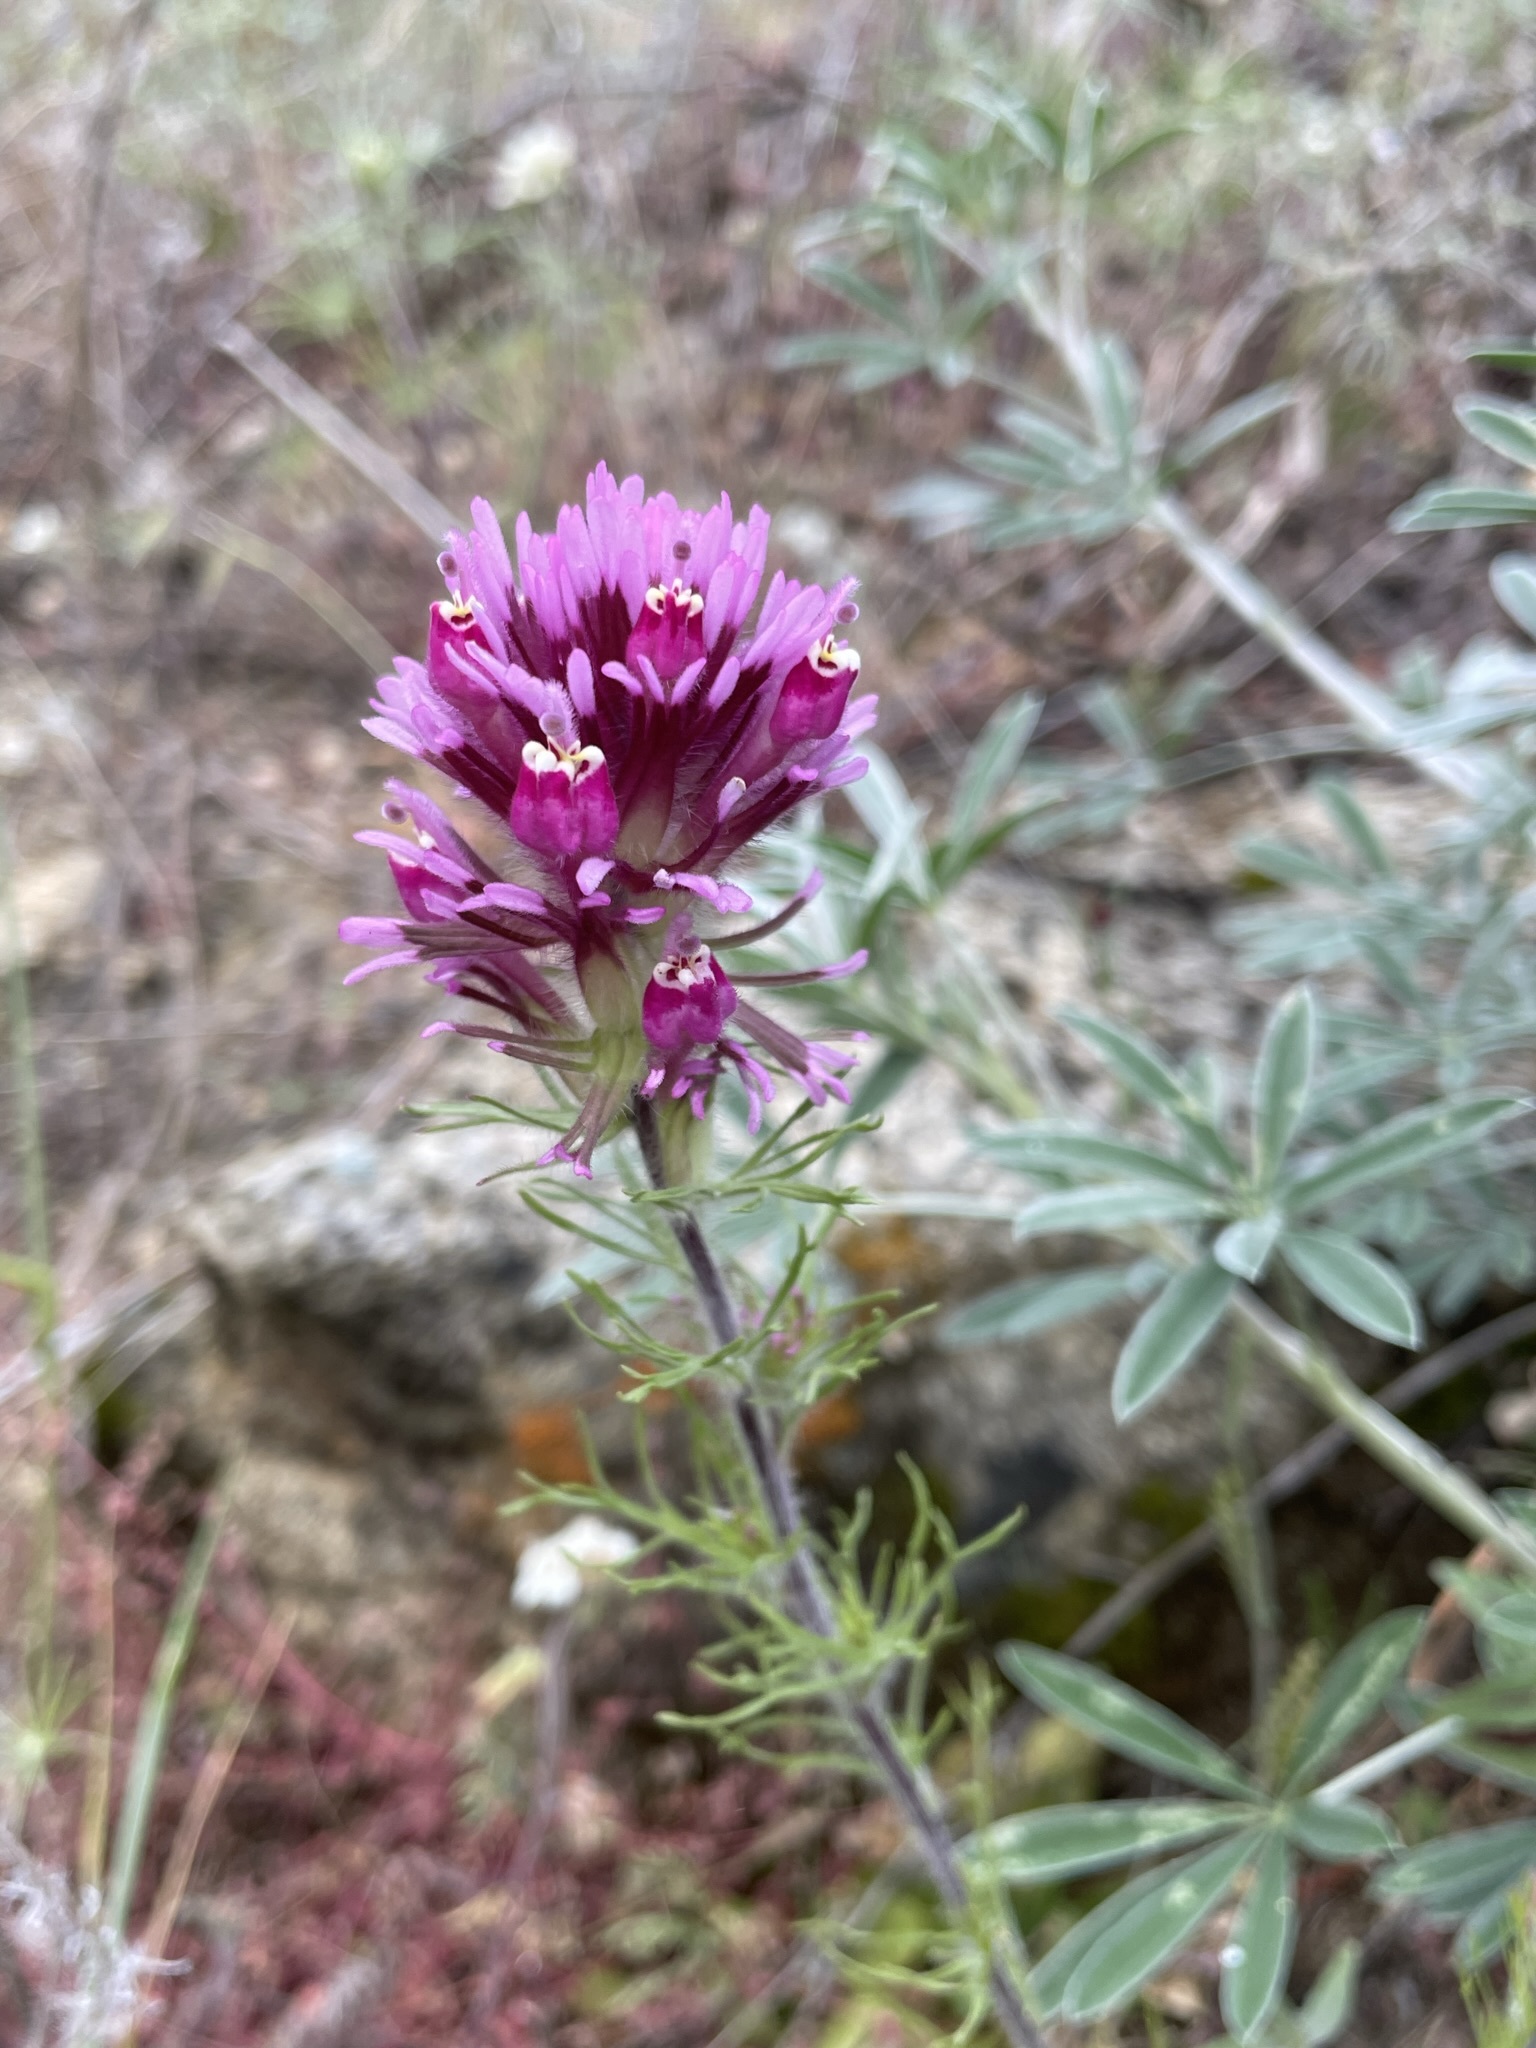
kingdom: Plantae
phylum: Tracheophyta
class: Magnoliopsida
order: Lamiales
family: Orobanchaceae
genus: Castilleja
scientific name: Castilleja exserta
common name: Purple owl-clover
